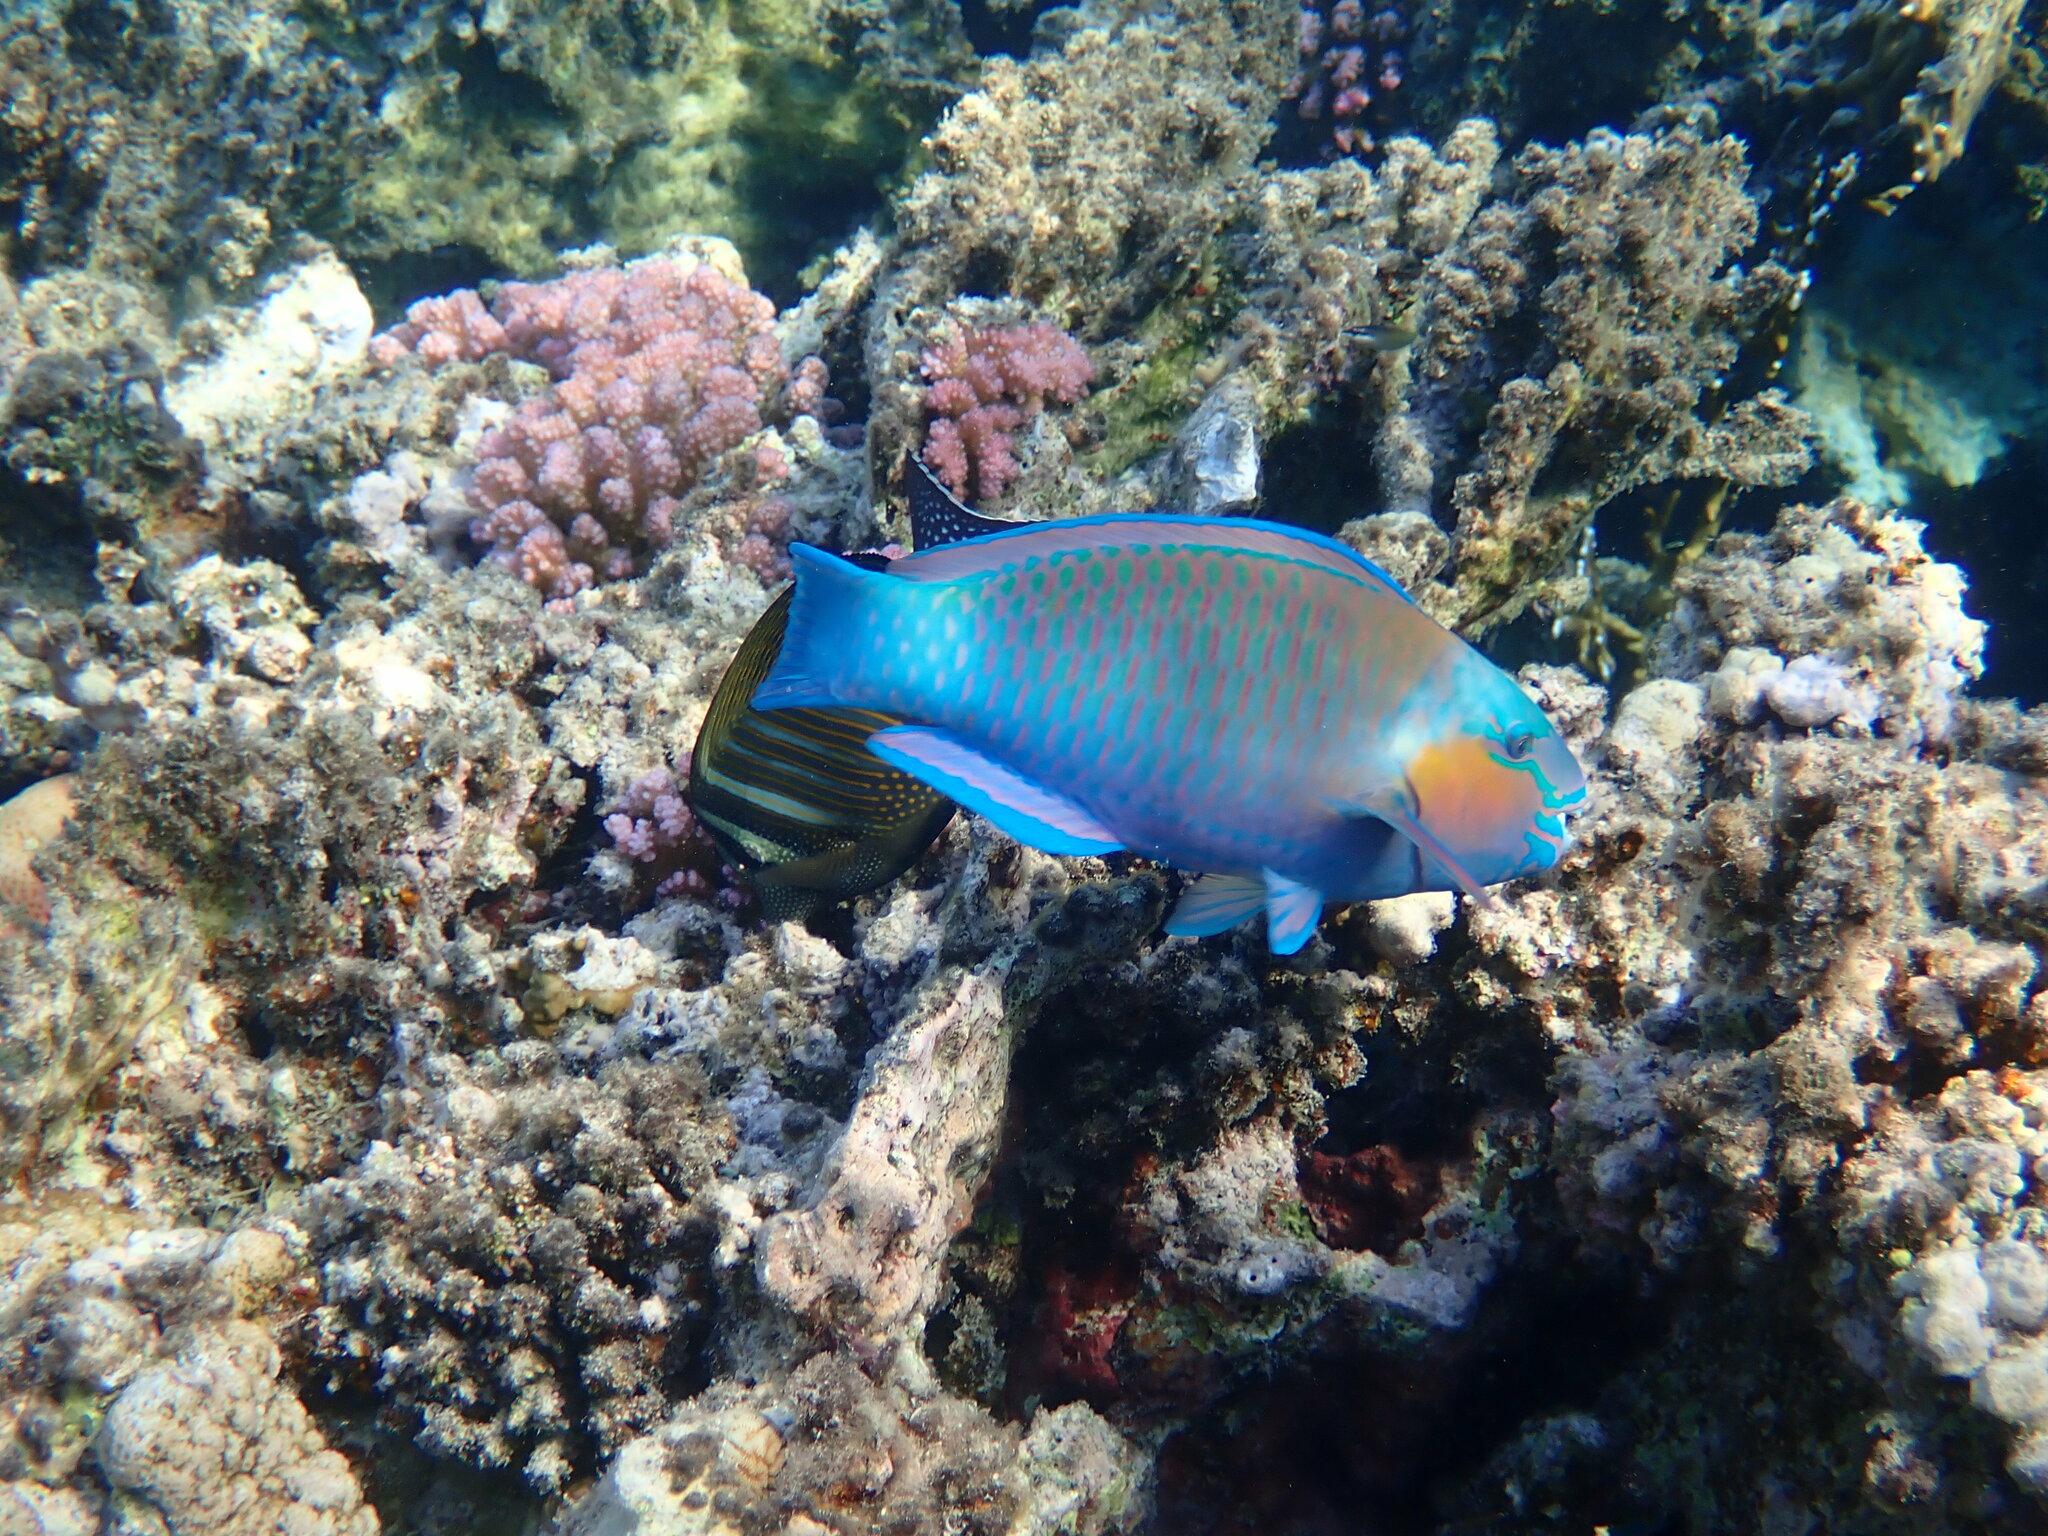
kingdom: Animalia
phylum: Chordata
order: Perciformes
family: Scaridae
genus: Chlorurus
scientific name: Chlorurus sordidus
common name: Bullethead parrotfish
